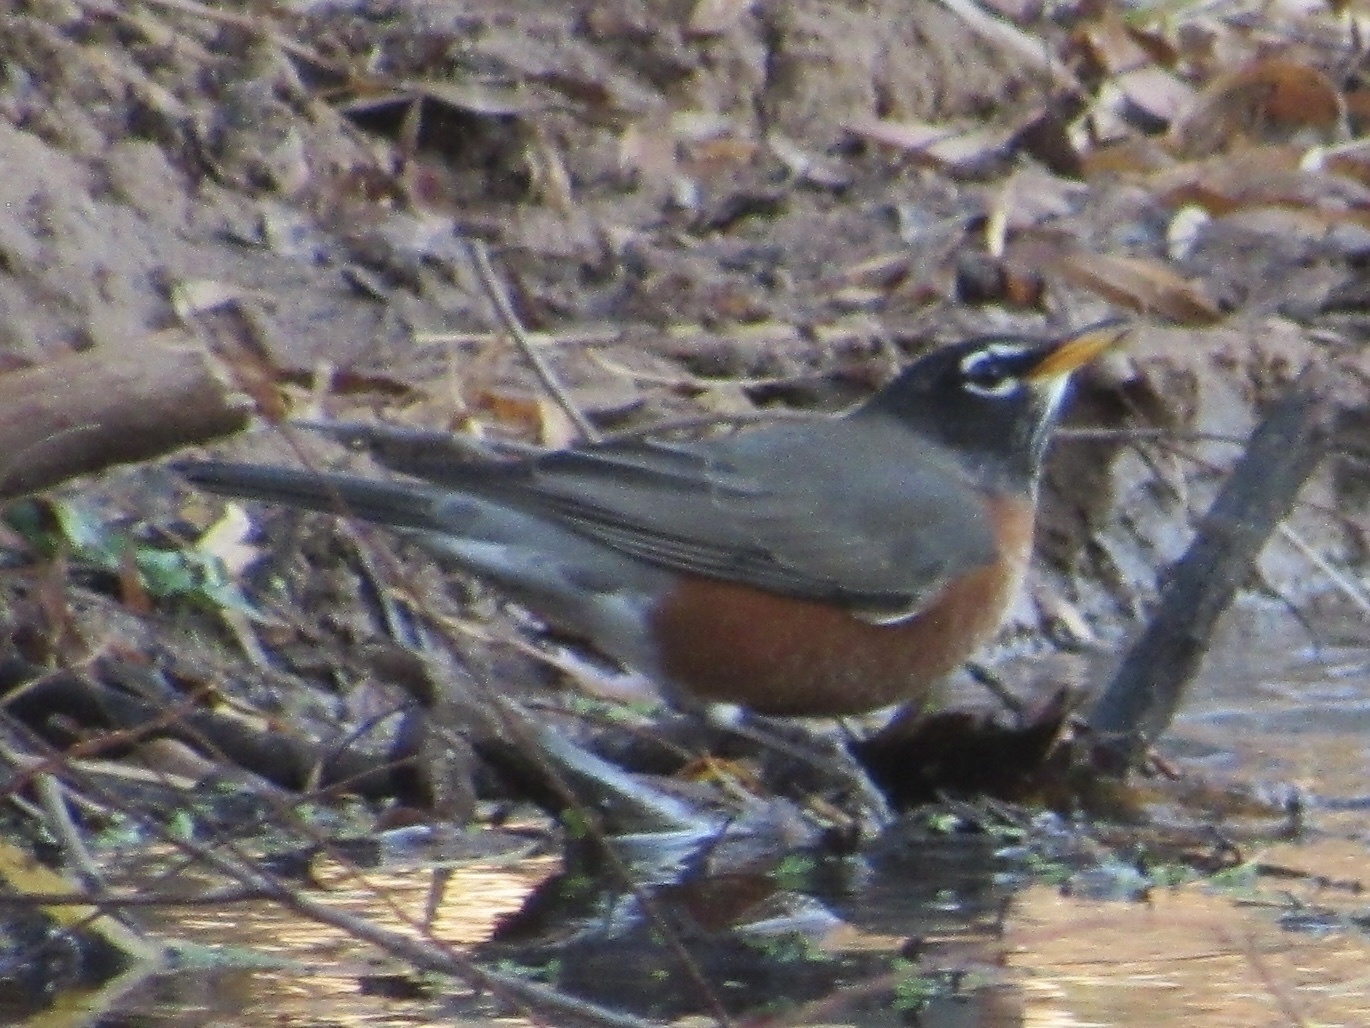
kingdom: Animalia
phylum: Chordata
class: Aves
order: Passeriformes
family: Turdidae
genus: Turdus
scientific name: Turdus migratorius
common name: American robin
